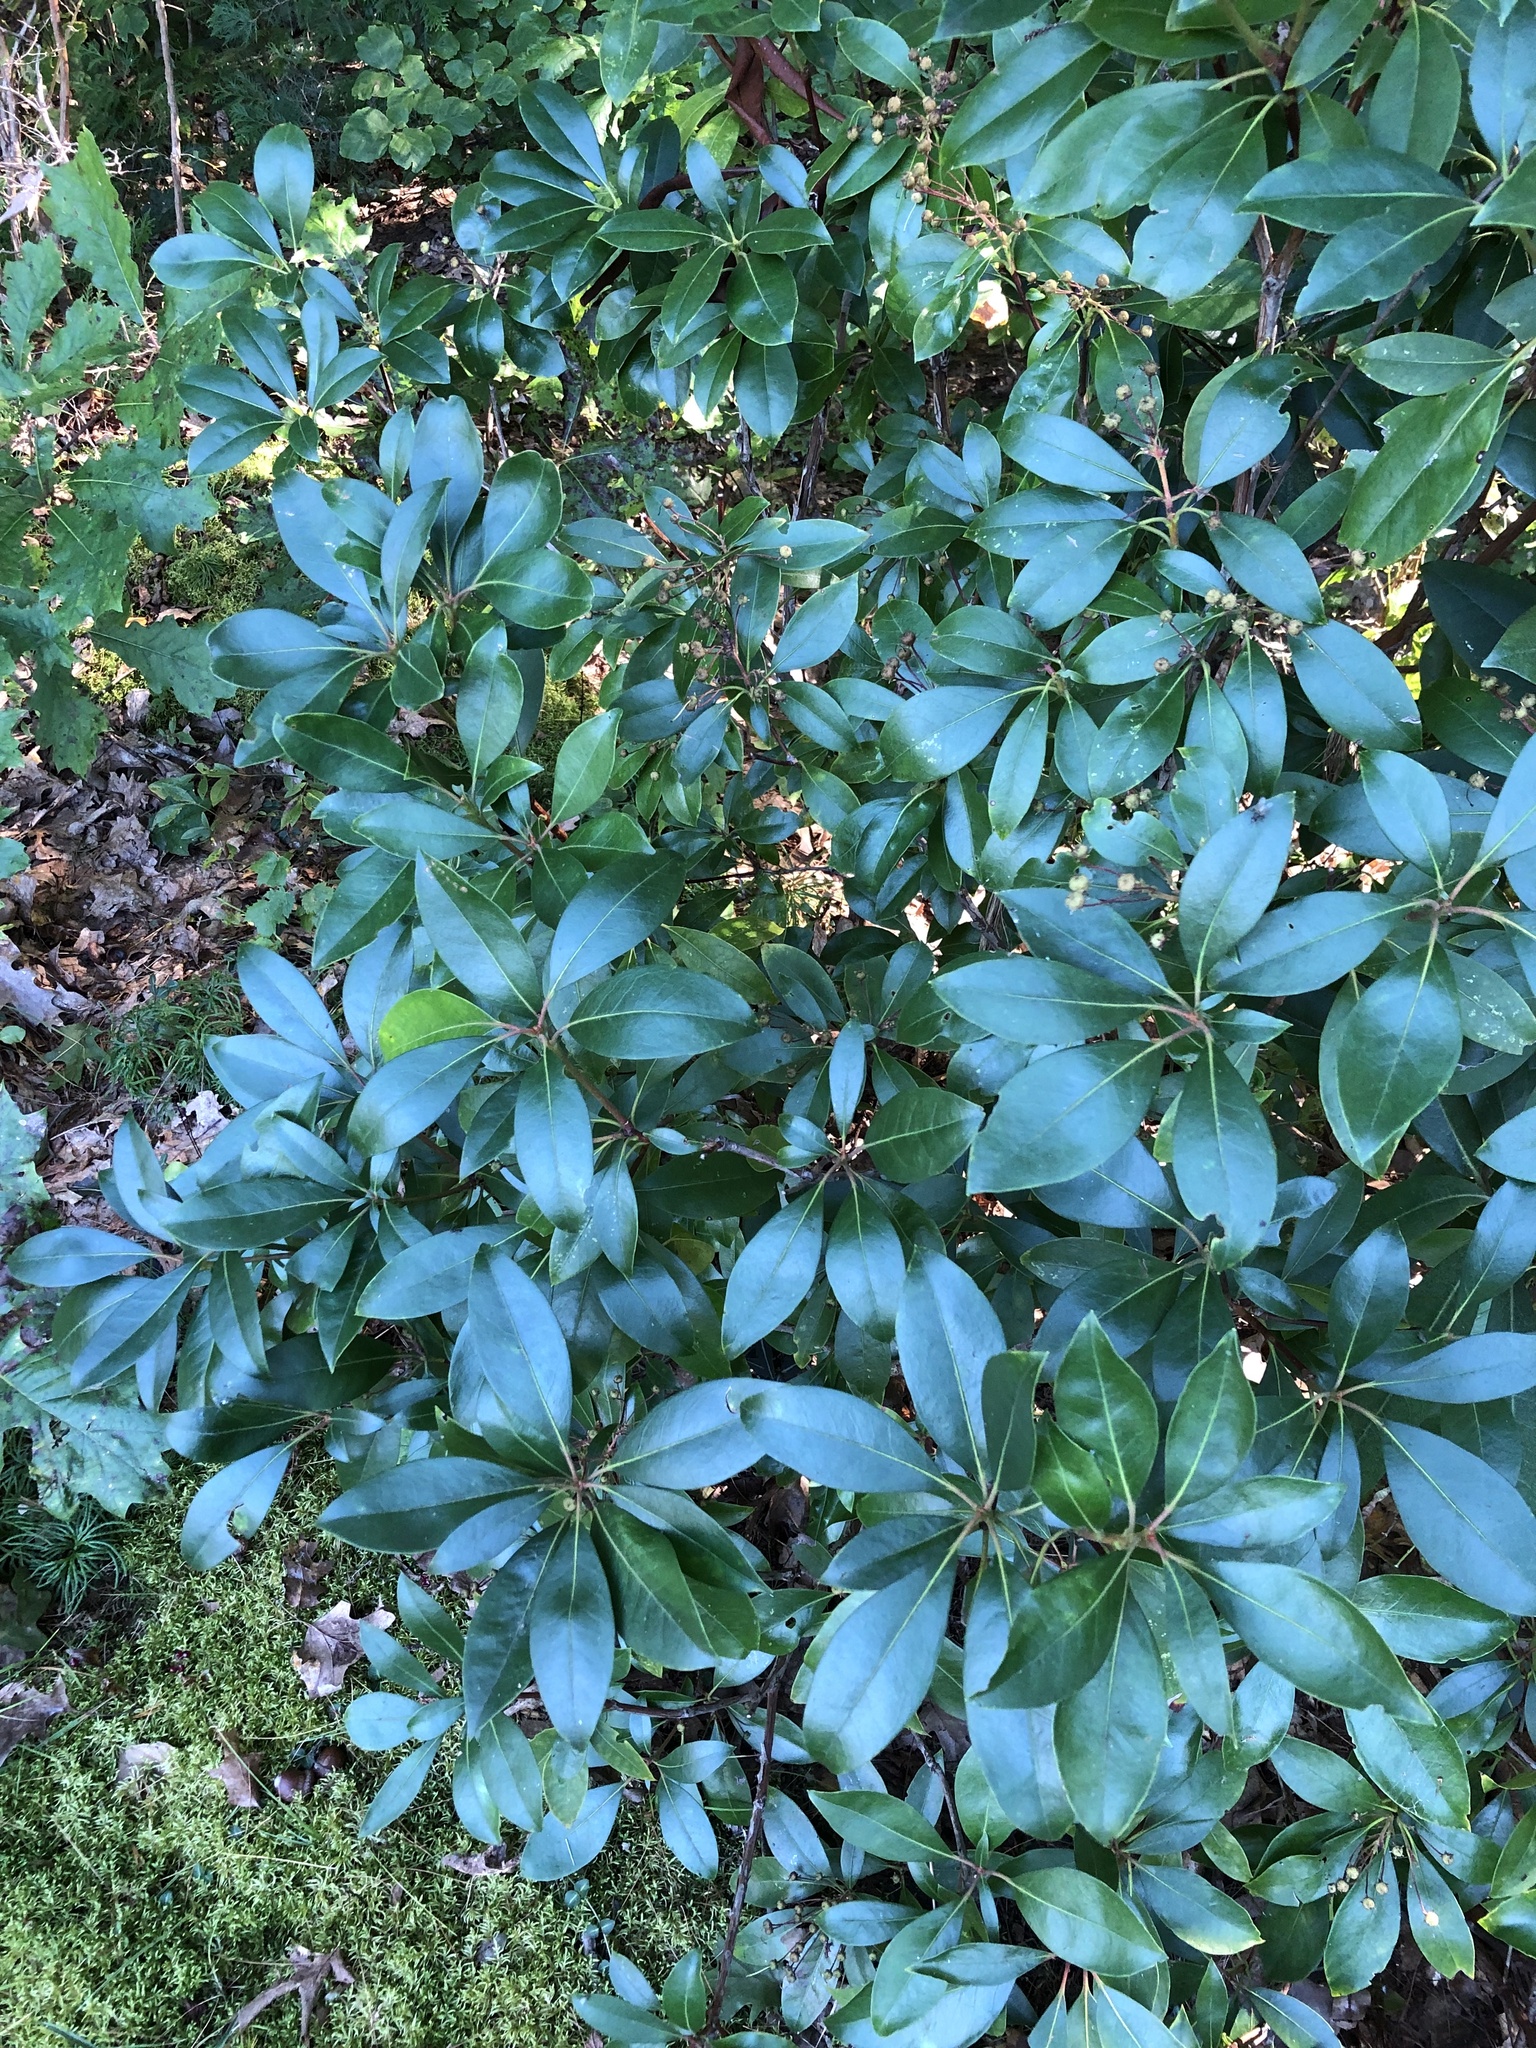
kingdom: Plantae
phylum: Tracheophyta
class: Magnoliopsida
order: Ericales
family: Ericaceae
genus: Kalmia
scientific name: Kalmia latifolia
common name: Mountain-laurel
